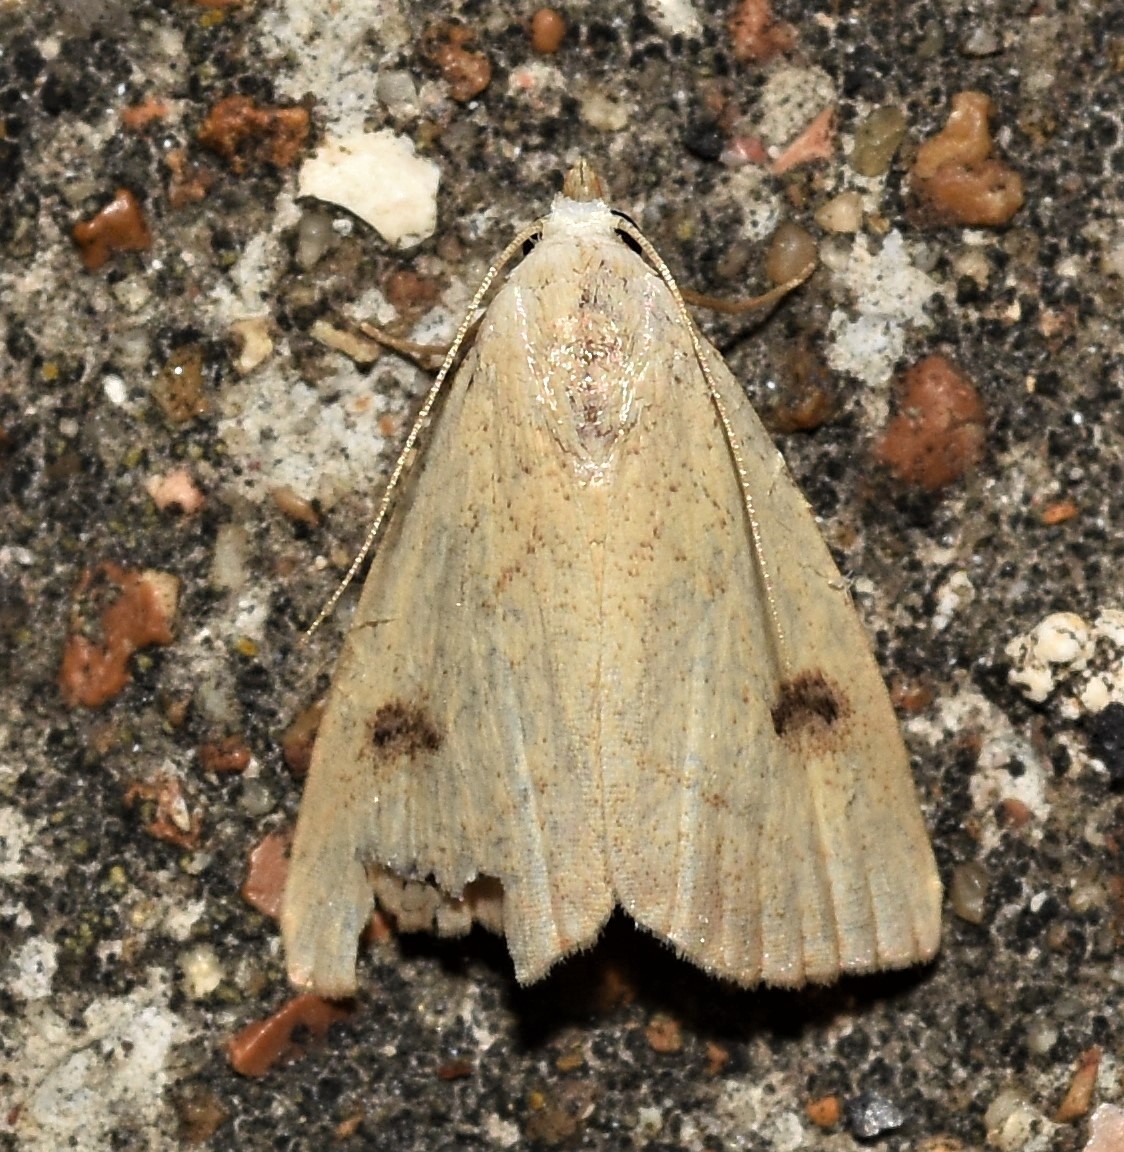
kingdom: Animalia
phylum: Arthropoda
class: Insecta
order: Lepidoptera
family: Erebidae
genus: Rivula
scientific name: Rivula propinqualis
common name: Spotted grass moth
